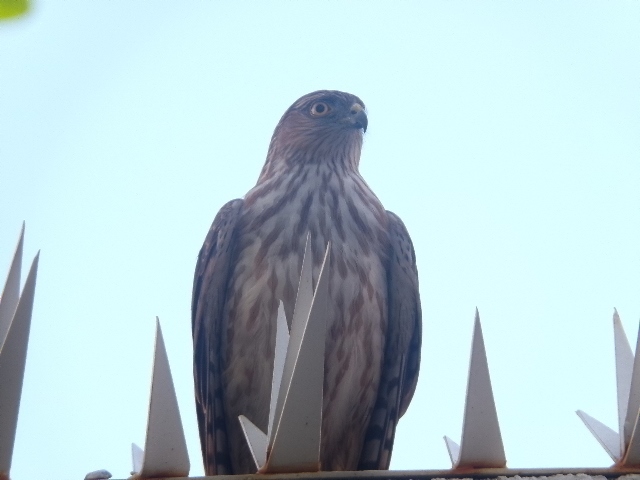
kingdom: Animalia
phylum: Chordata
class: Aves
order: Accipitriformes
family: Accipitridae
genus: Accipiter
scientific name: Accipiter striatus
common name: Sharp-shinned hawk
